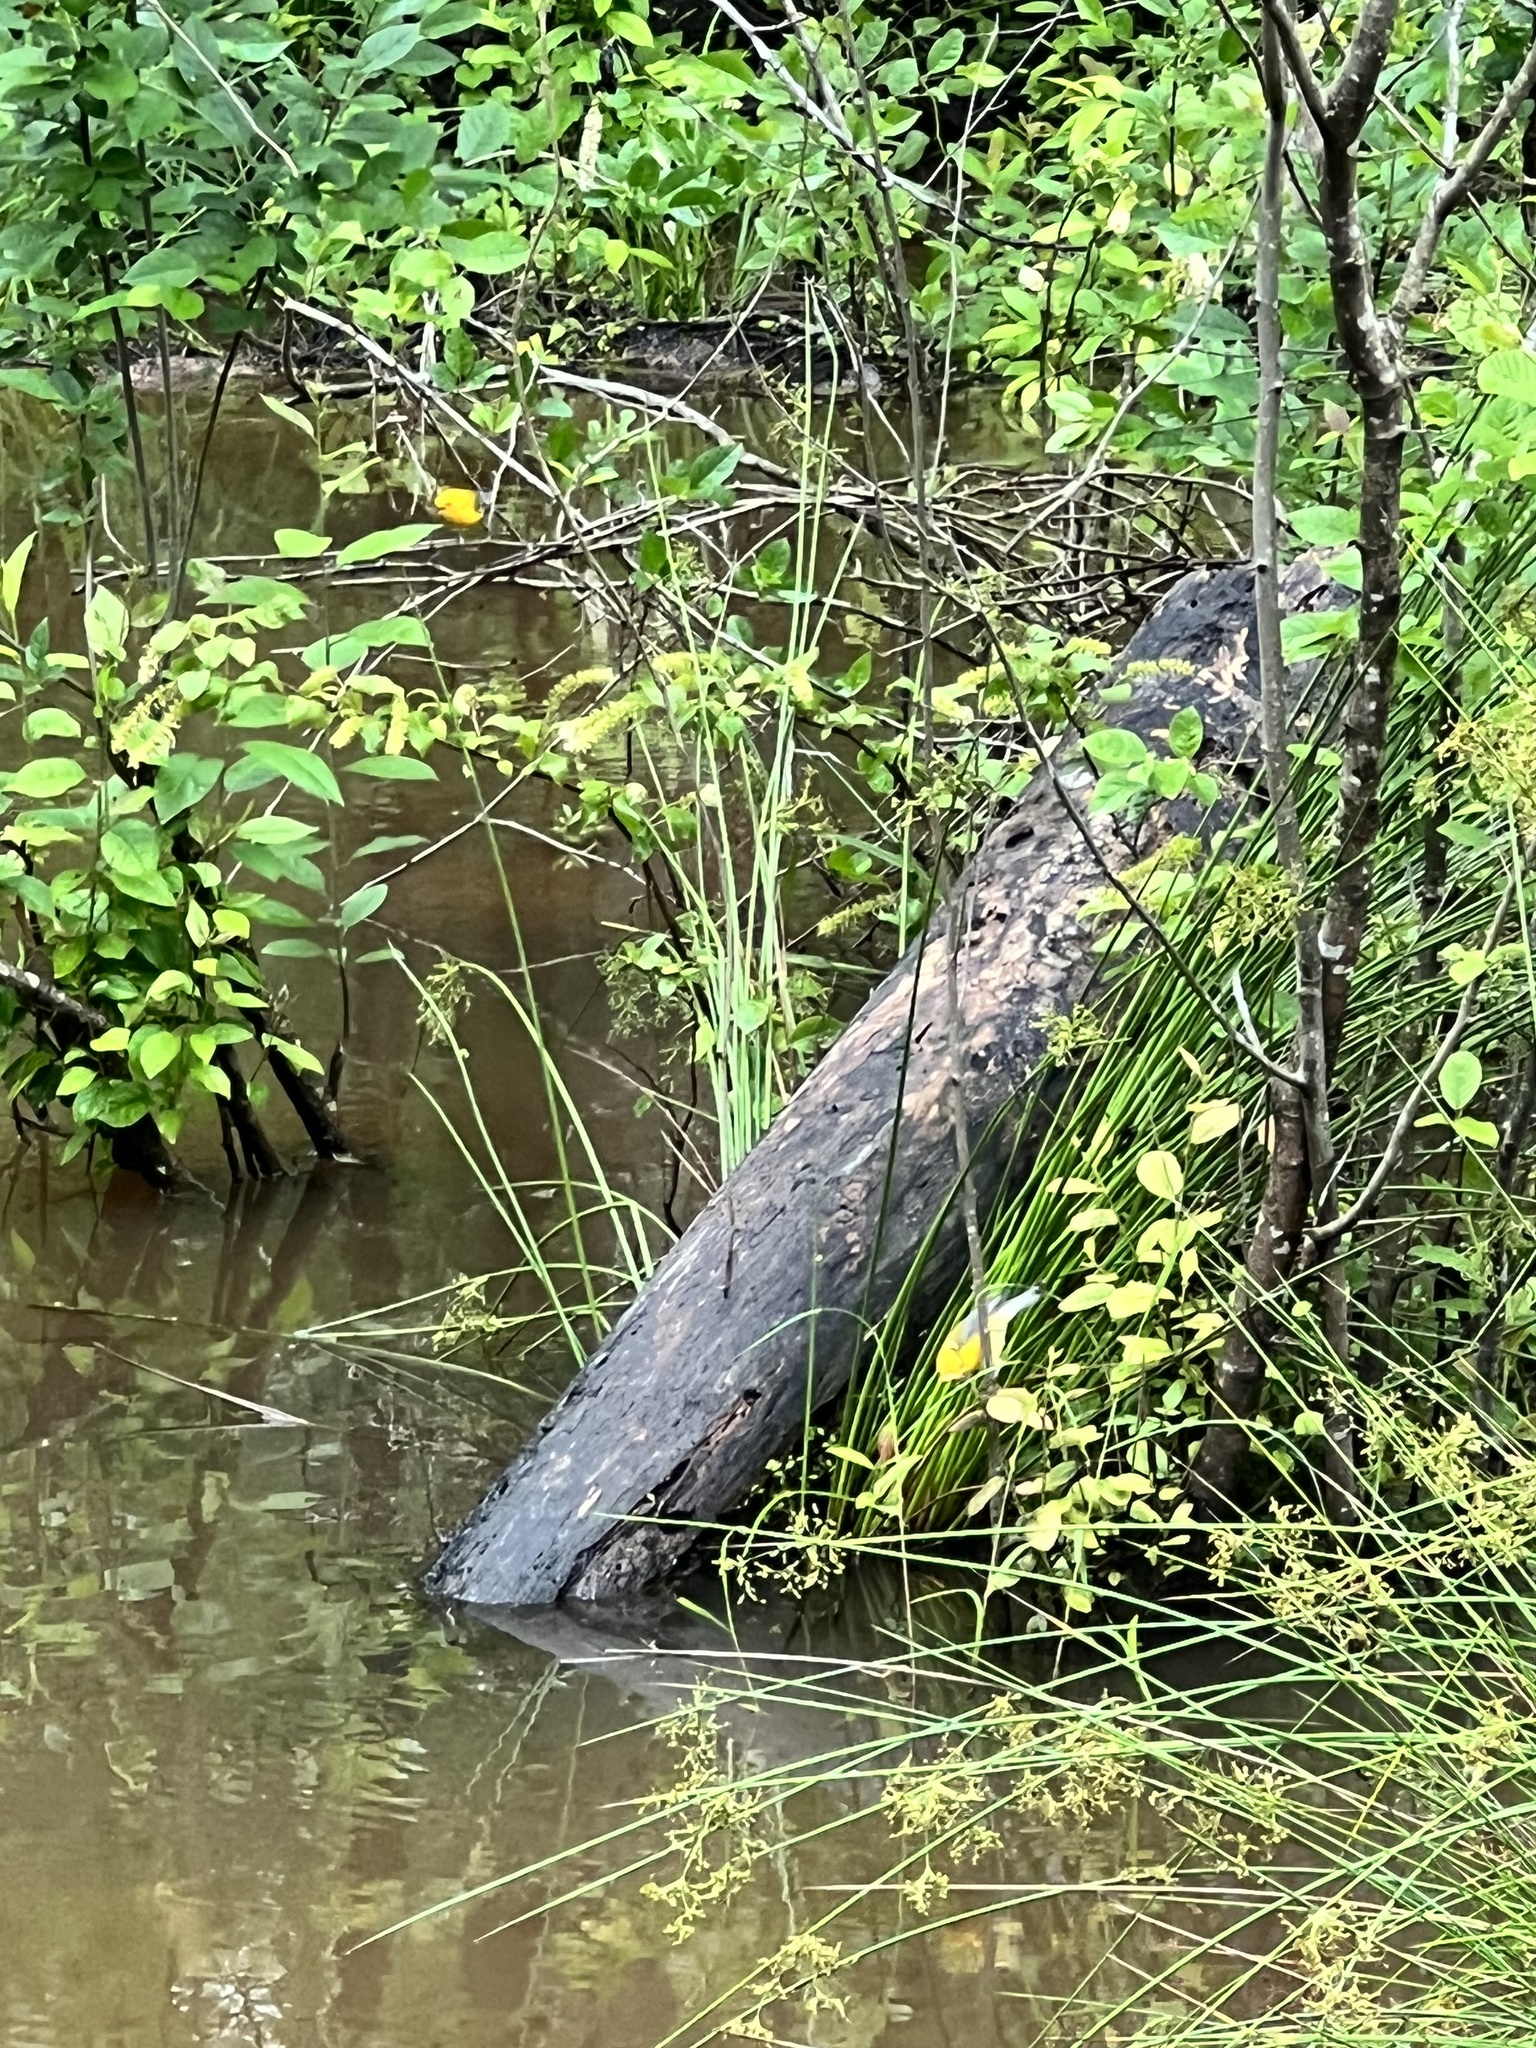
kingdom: Animalia
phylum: Chordata
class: Aves
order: Passeriformes
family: Parulidae
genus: Protonotaria
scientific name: Protonotaria citrea
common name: Prothonotary warbler
